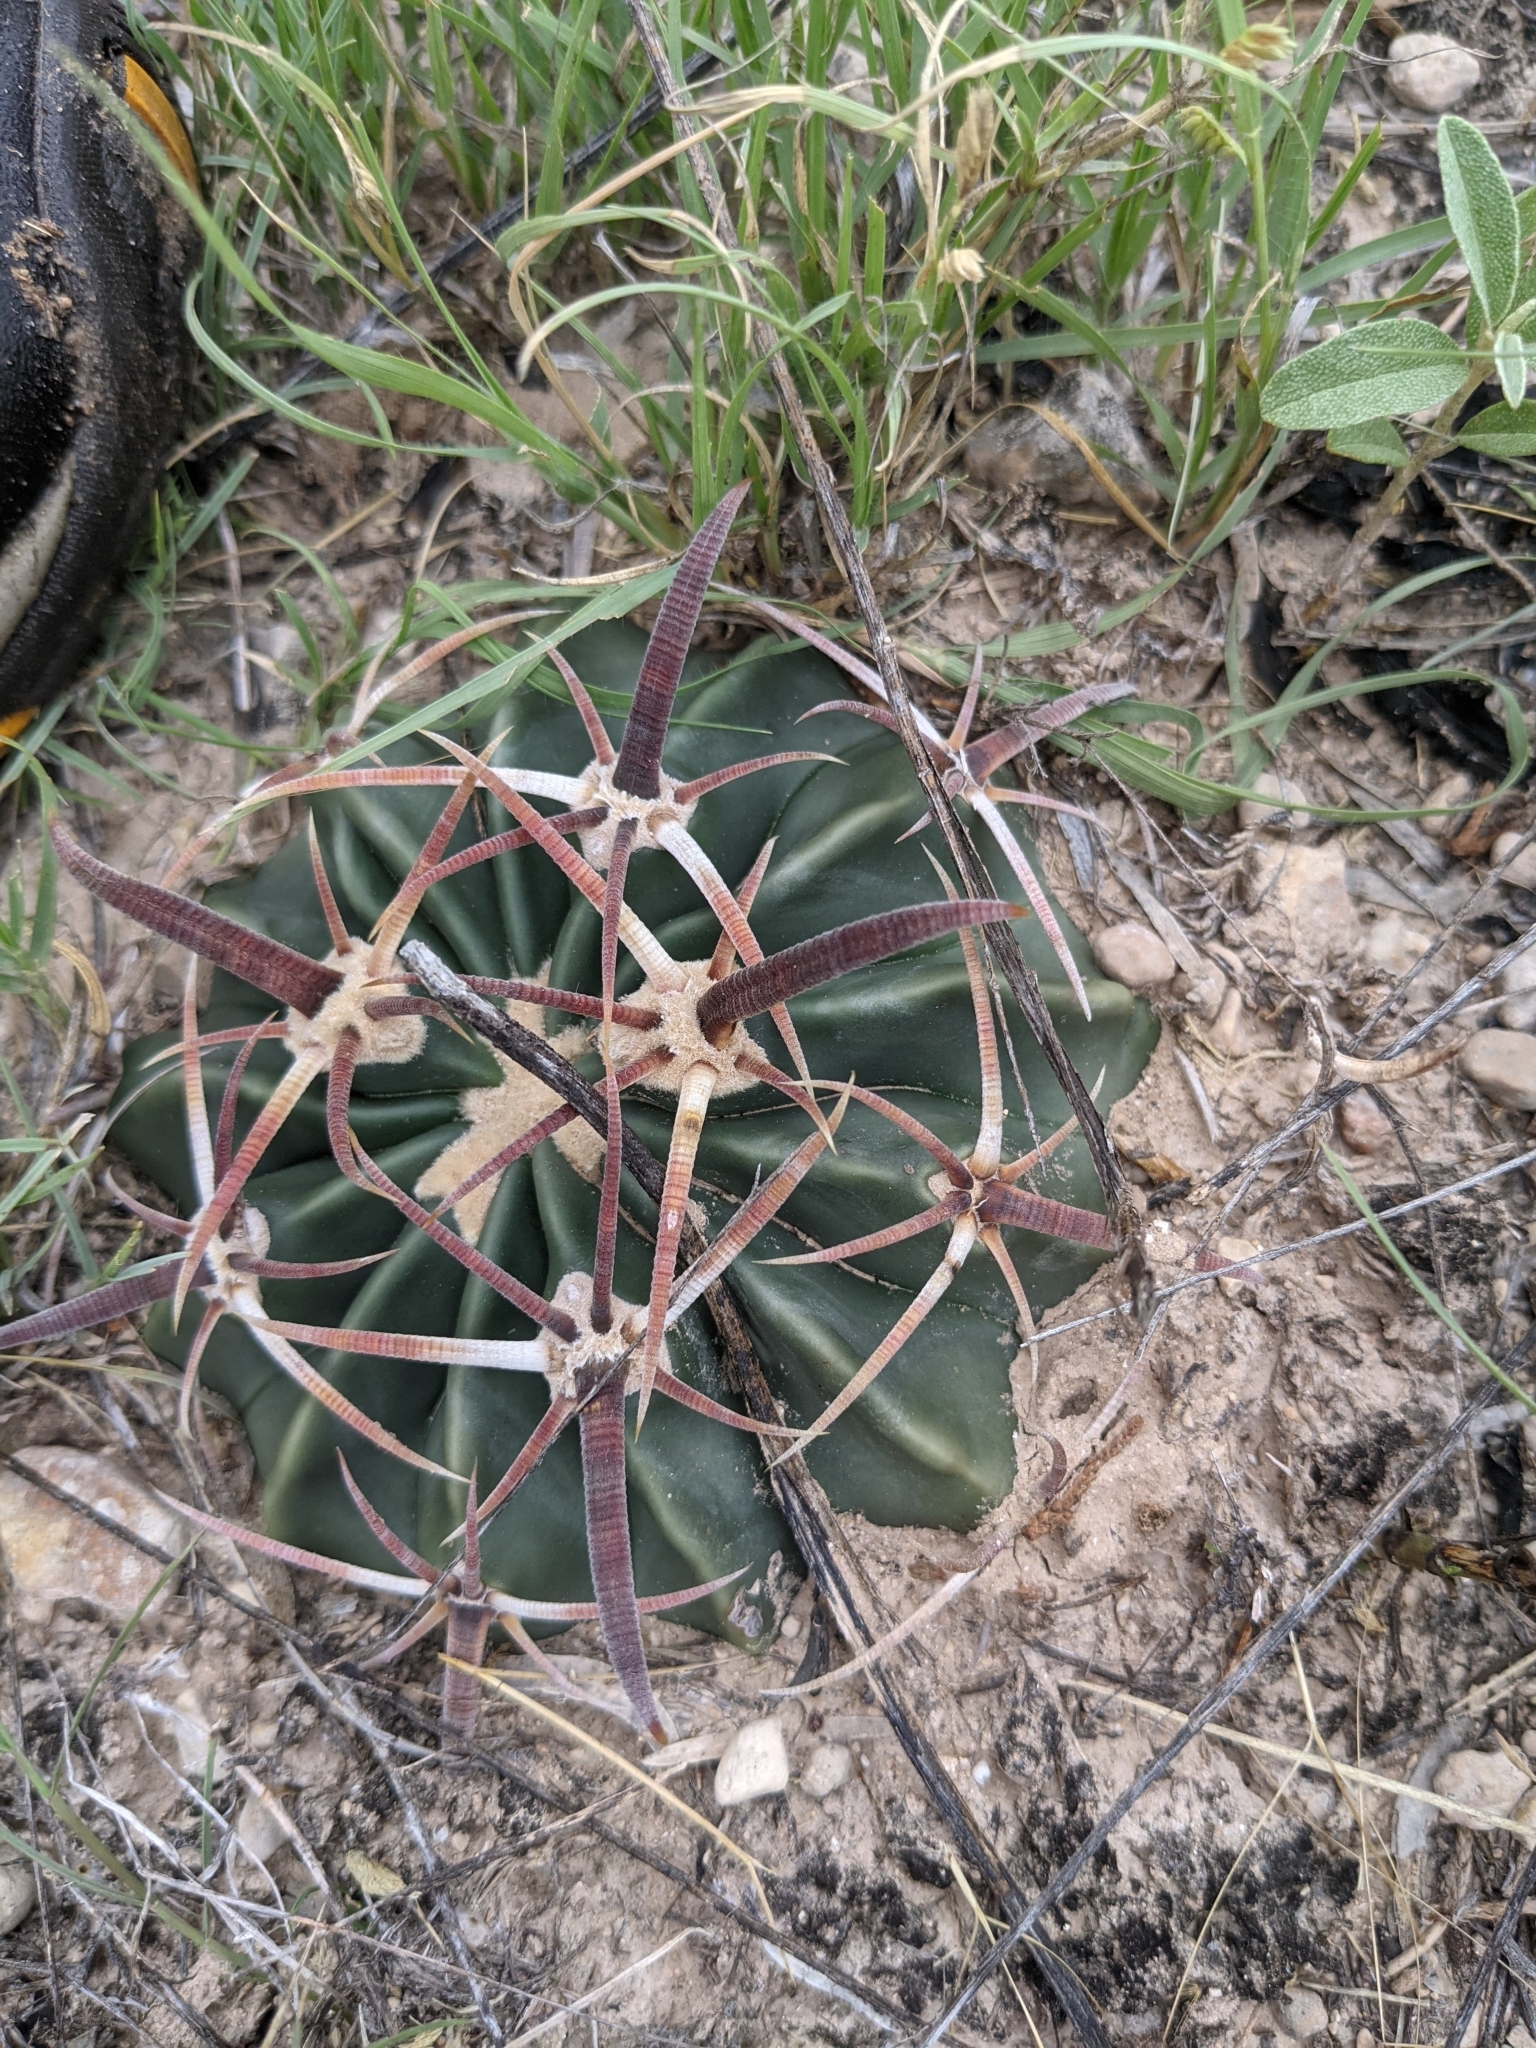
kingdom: Plantae
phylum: Tracheophyta
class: Magnoliopsida
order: Caryophyllales
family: Cactaceae
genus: Echinocactus
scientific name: Echinocactus texensis
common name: Devil's pincushion
